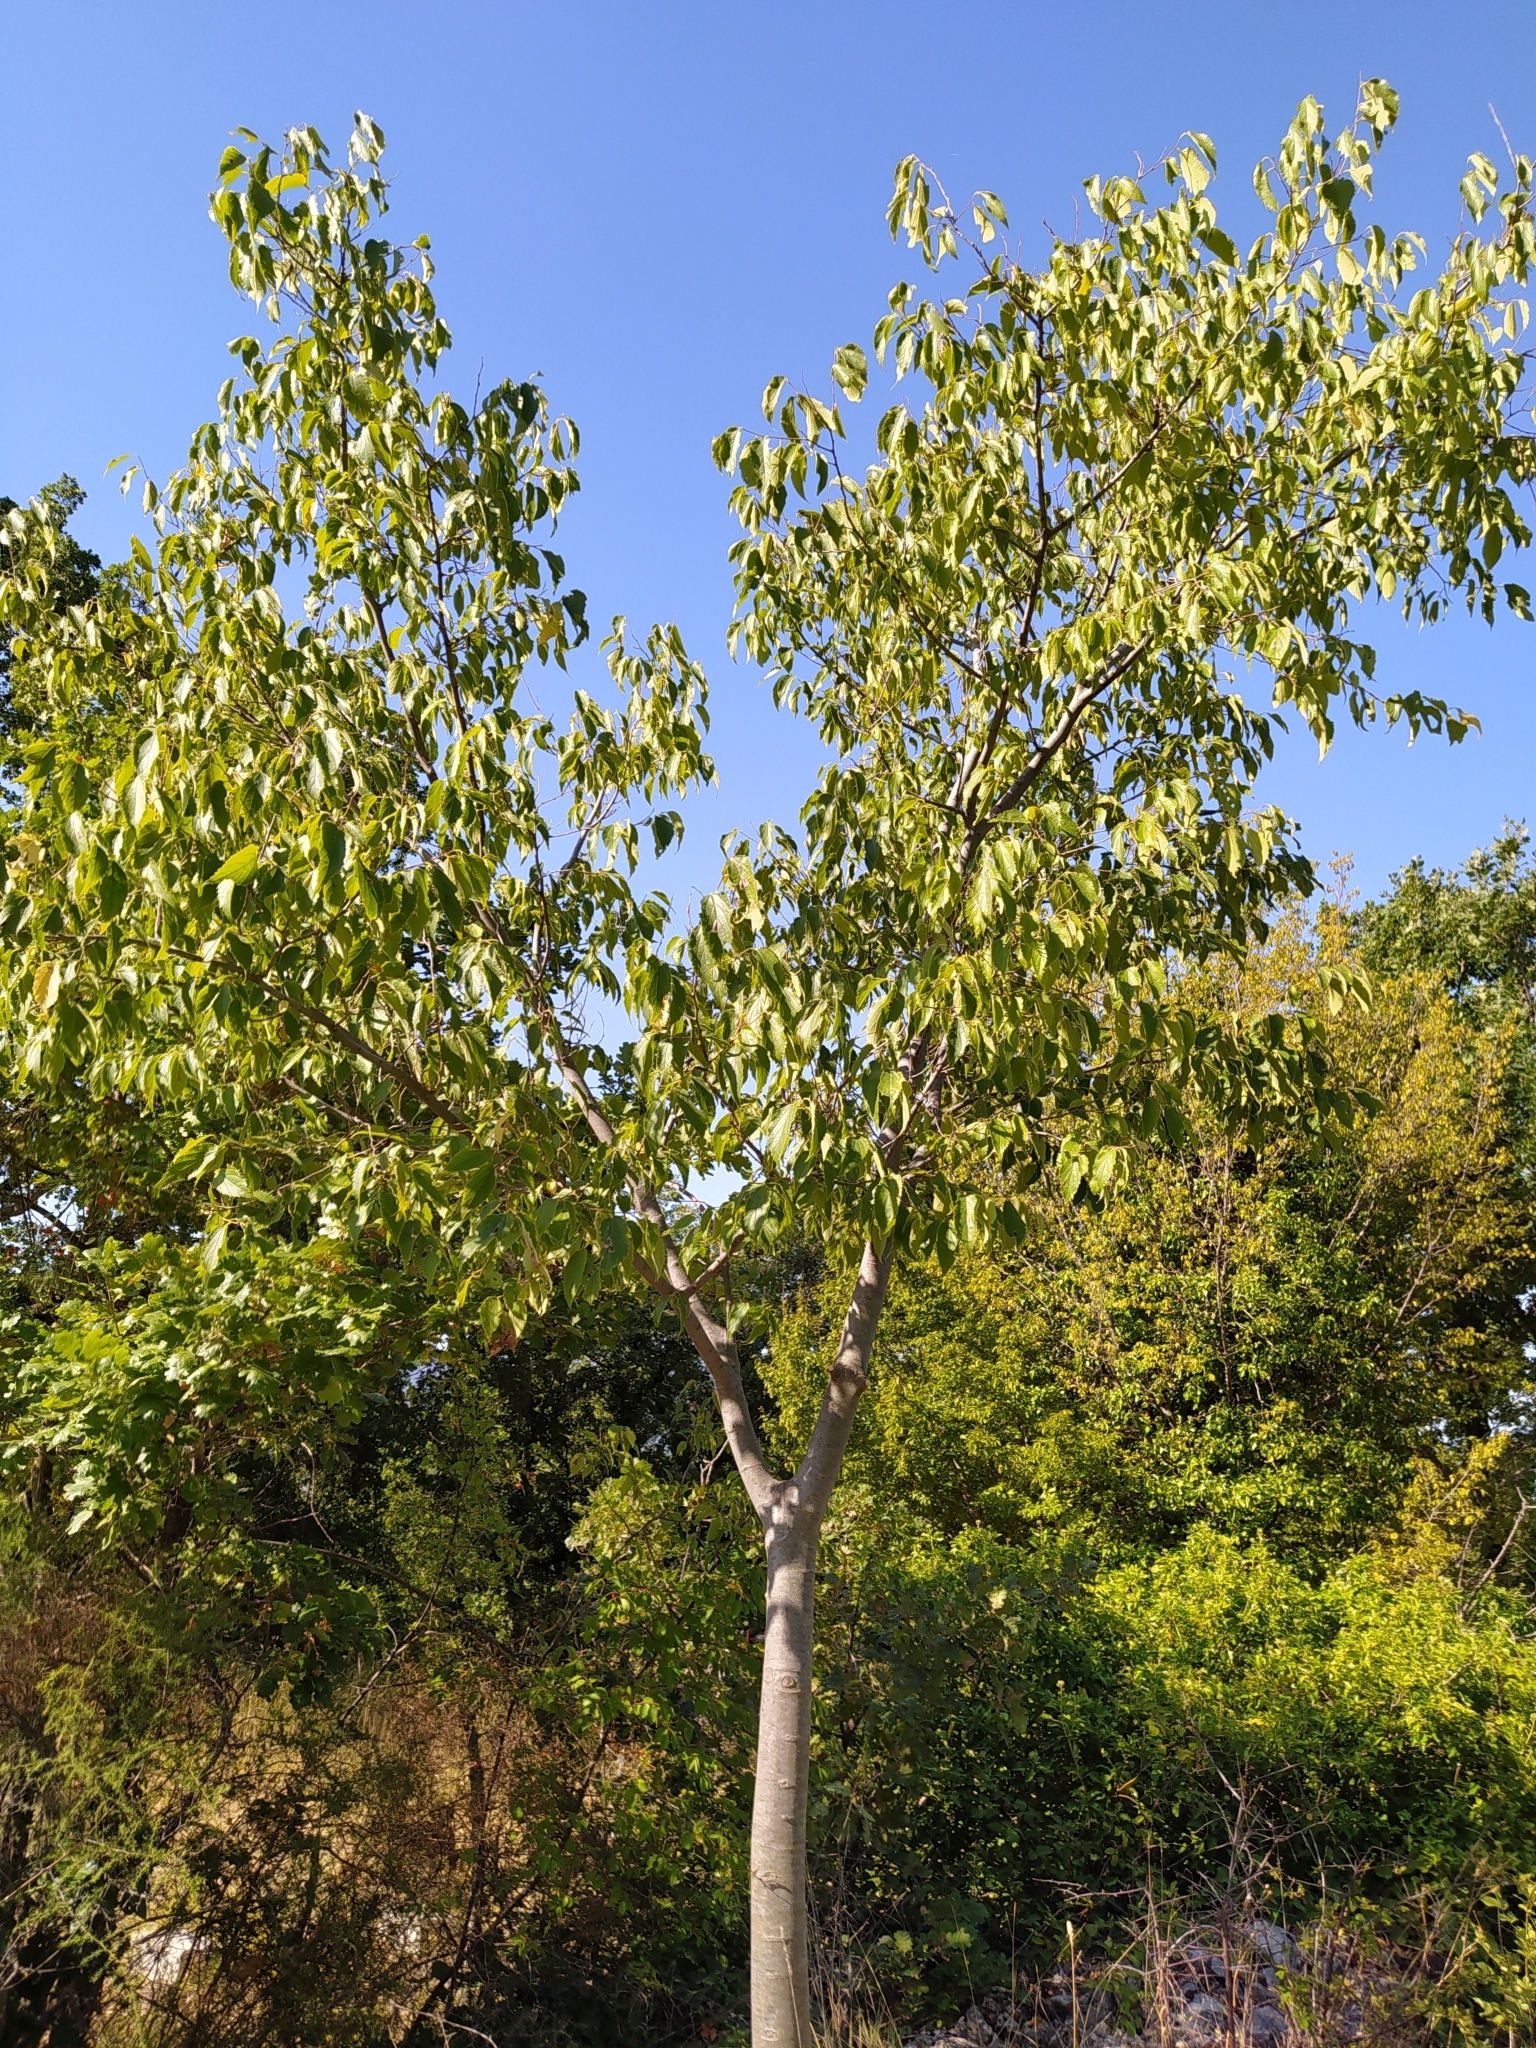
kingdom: Plantae
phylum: Tracheophyta
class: Magnoliopsida
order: Rosales
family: Cannabaceae
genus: Celtis
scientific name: Celtis australis
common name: European hackberry
